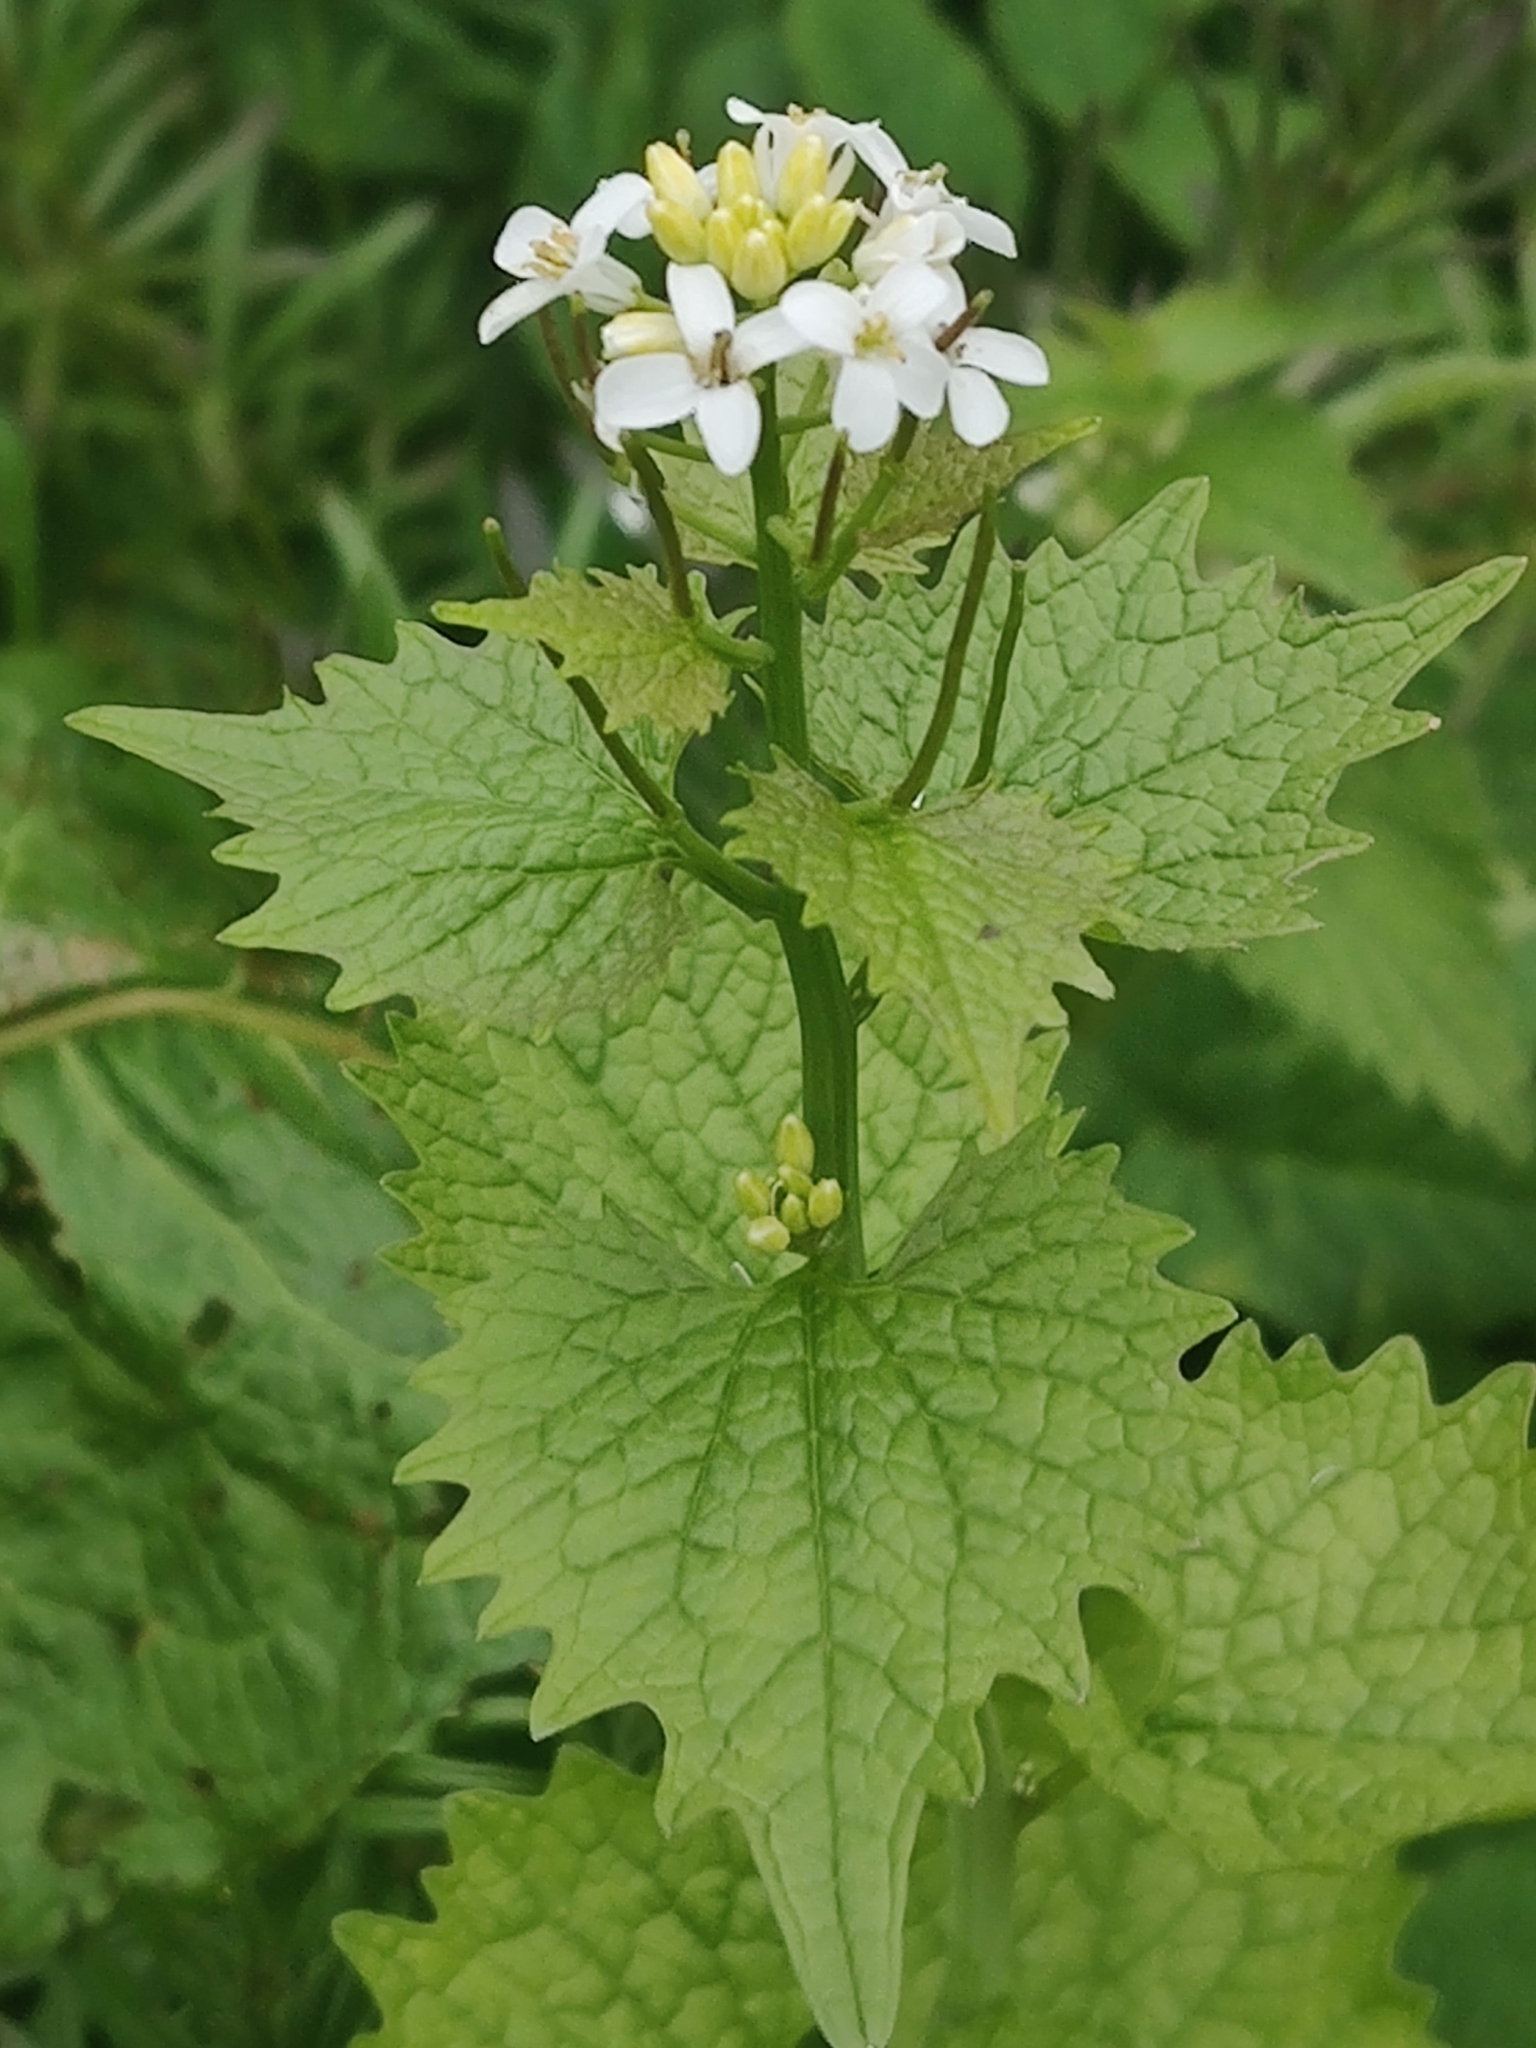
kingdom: Plantae
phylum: Tracheophyta
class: Magnoliopsida
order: Brassicales
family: Brassicaceae
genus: Alliaria
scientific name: Alliaria petiolata
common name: Garlic mustard
